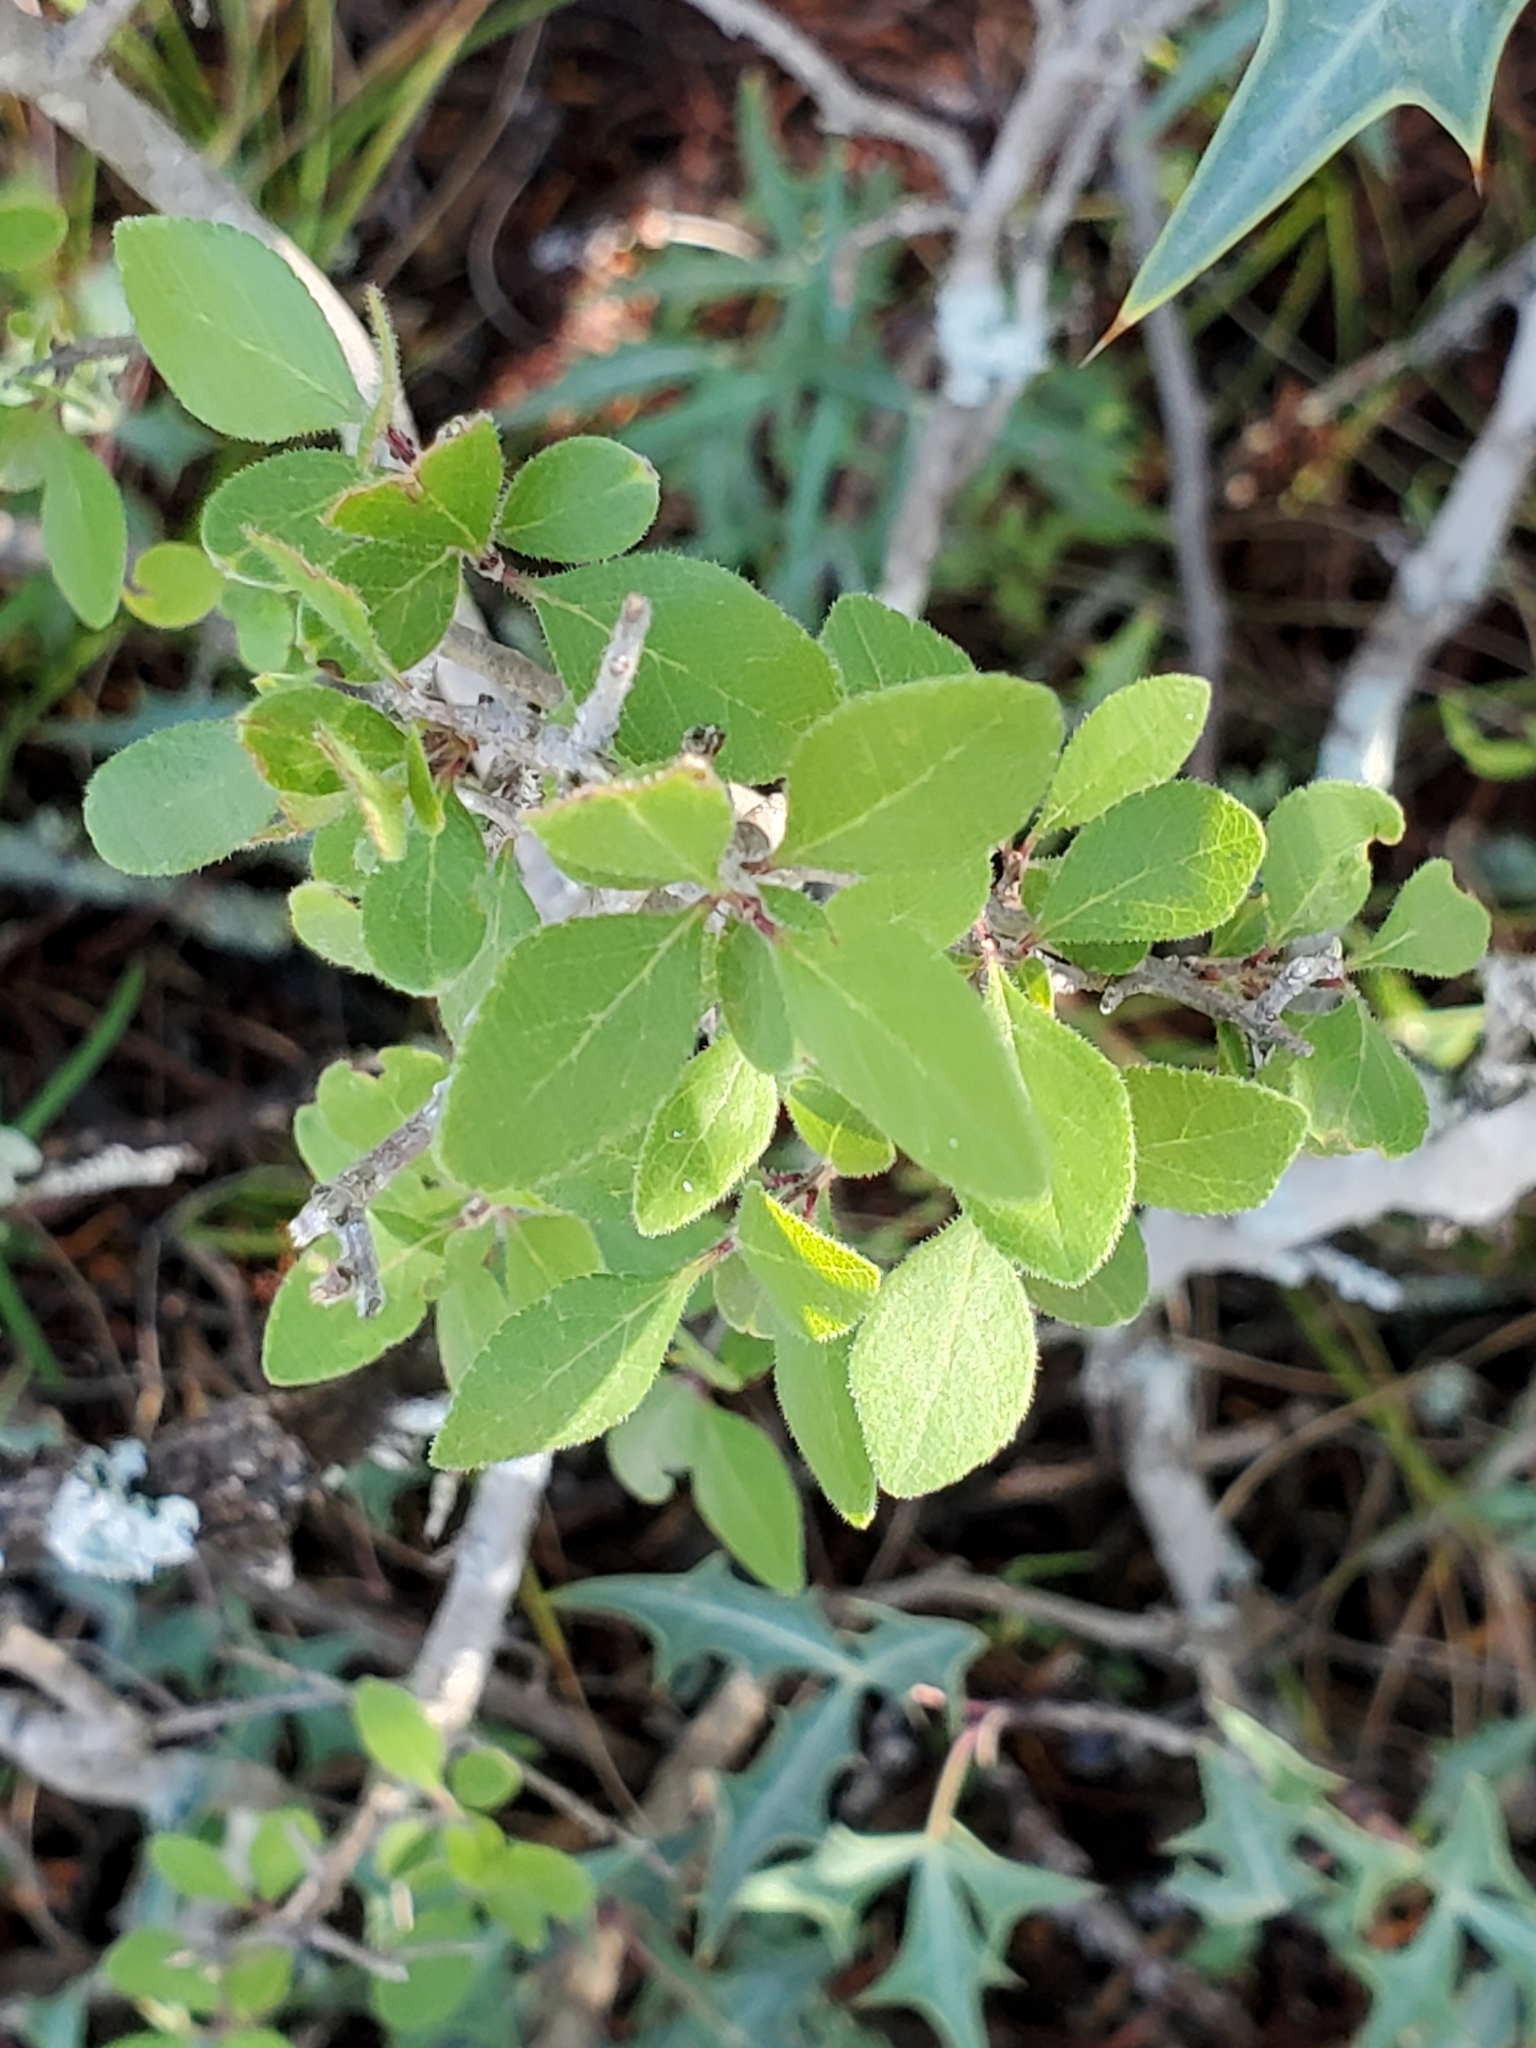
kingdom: Plantae
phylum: Tracheophyta
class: Magnoliopsida
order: Lamiales
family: Oleaceae
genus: Forestiera
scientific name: Forestiera pubescens
